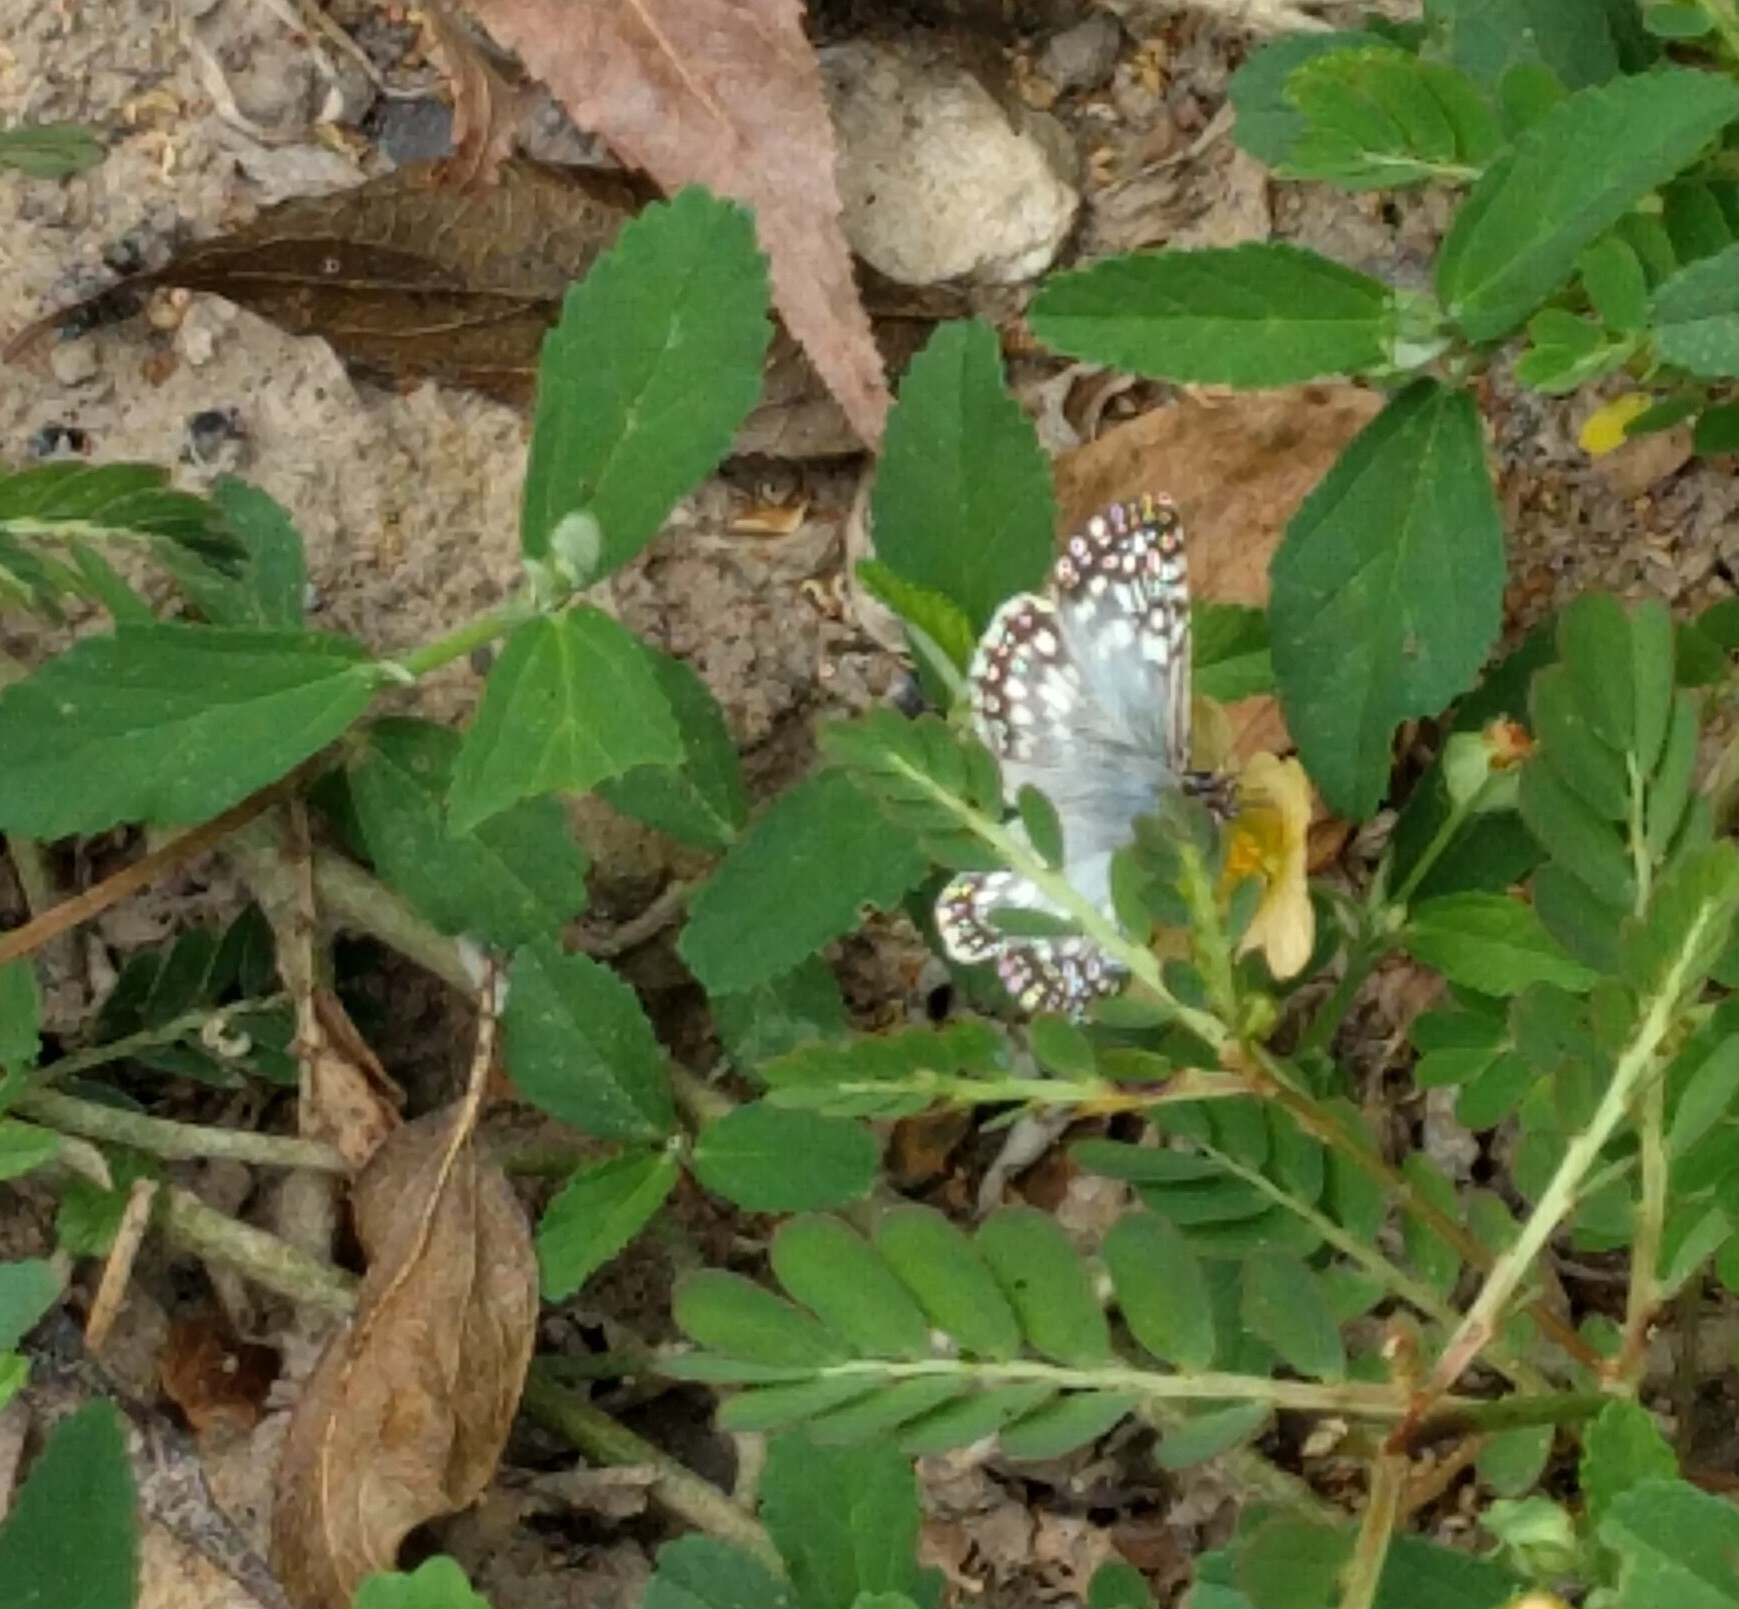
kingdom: Animalia
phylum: Arthropoda
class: Insecta
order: Lepidoptera
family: Hesperiidae
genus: Pyrgus
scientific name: Pyrgus oileus
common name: Tropical checkered-skipper
